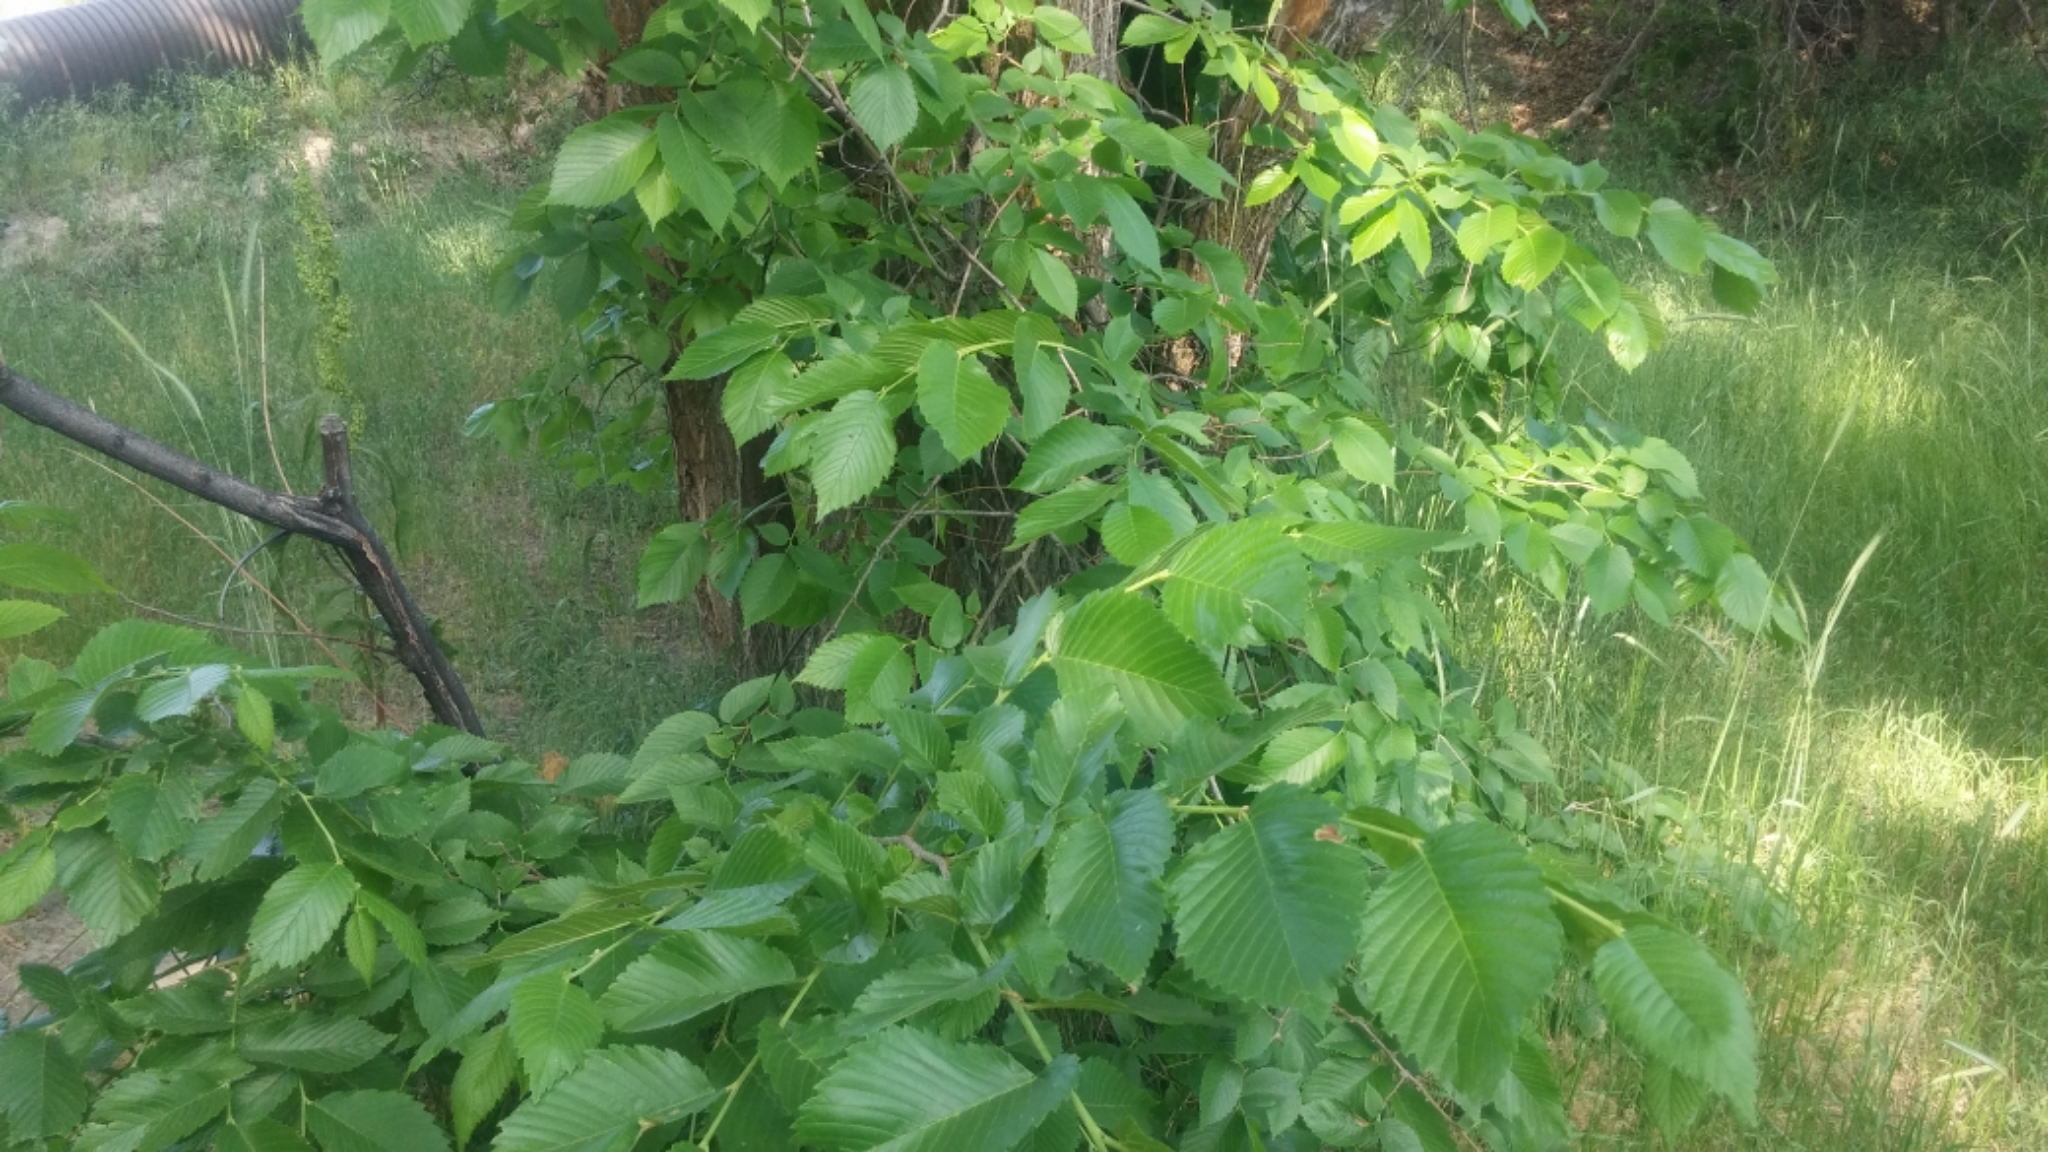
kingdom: Plantae
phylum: Tracheophyta
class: Magnoliopsida
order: Rosales
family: Ulmaceae
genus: Ulmus
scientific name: Ulmus americana
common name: American elm
